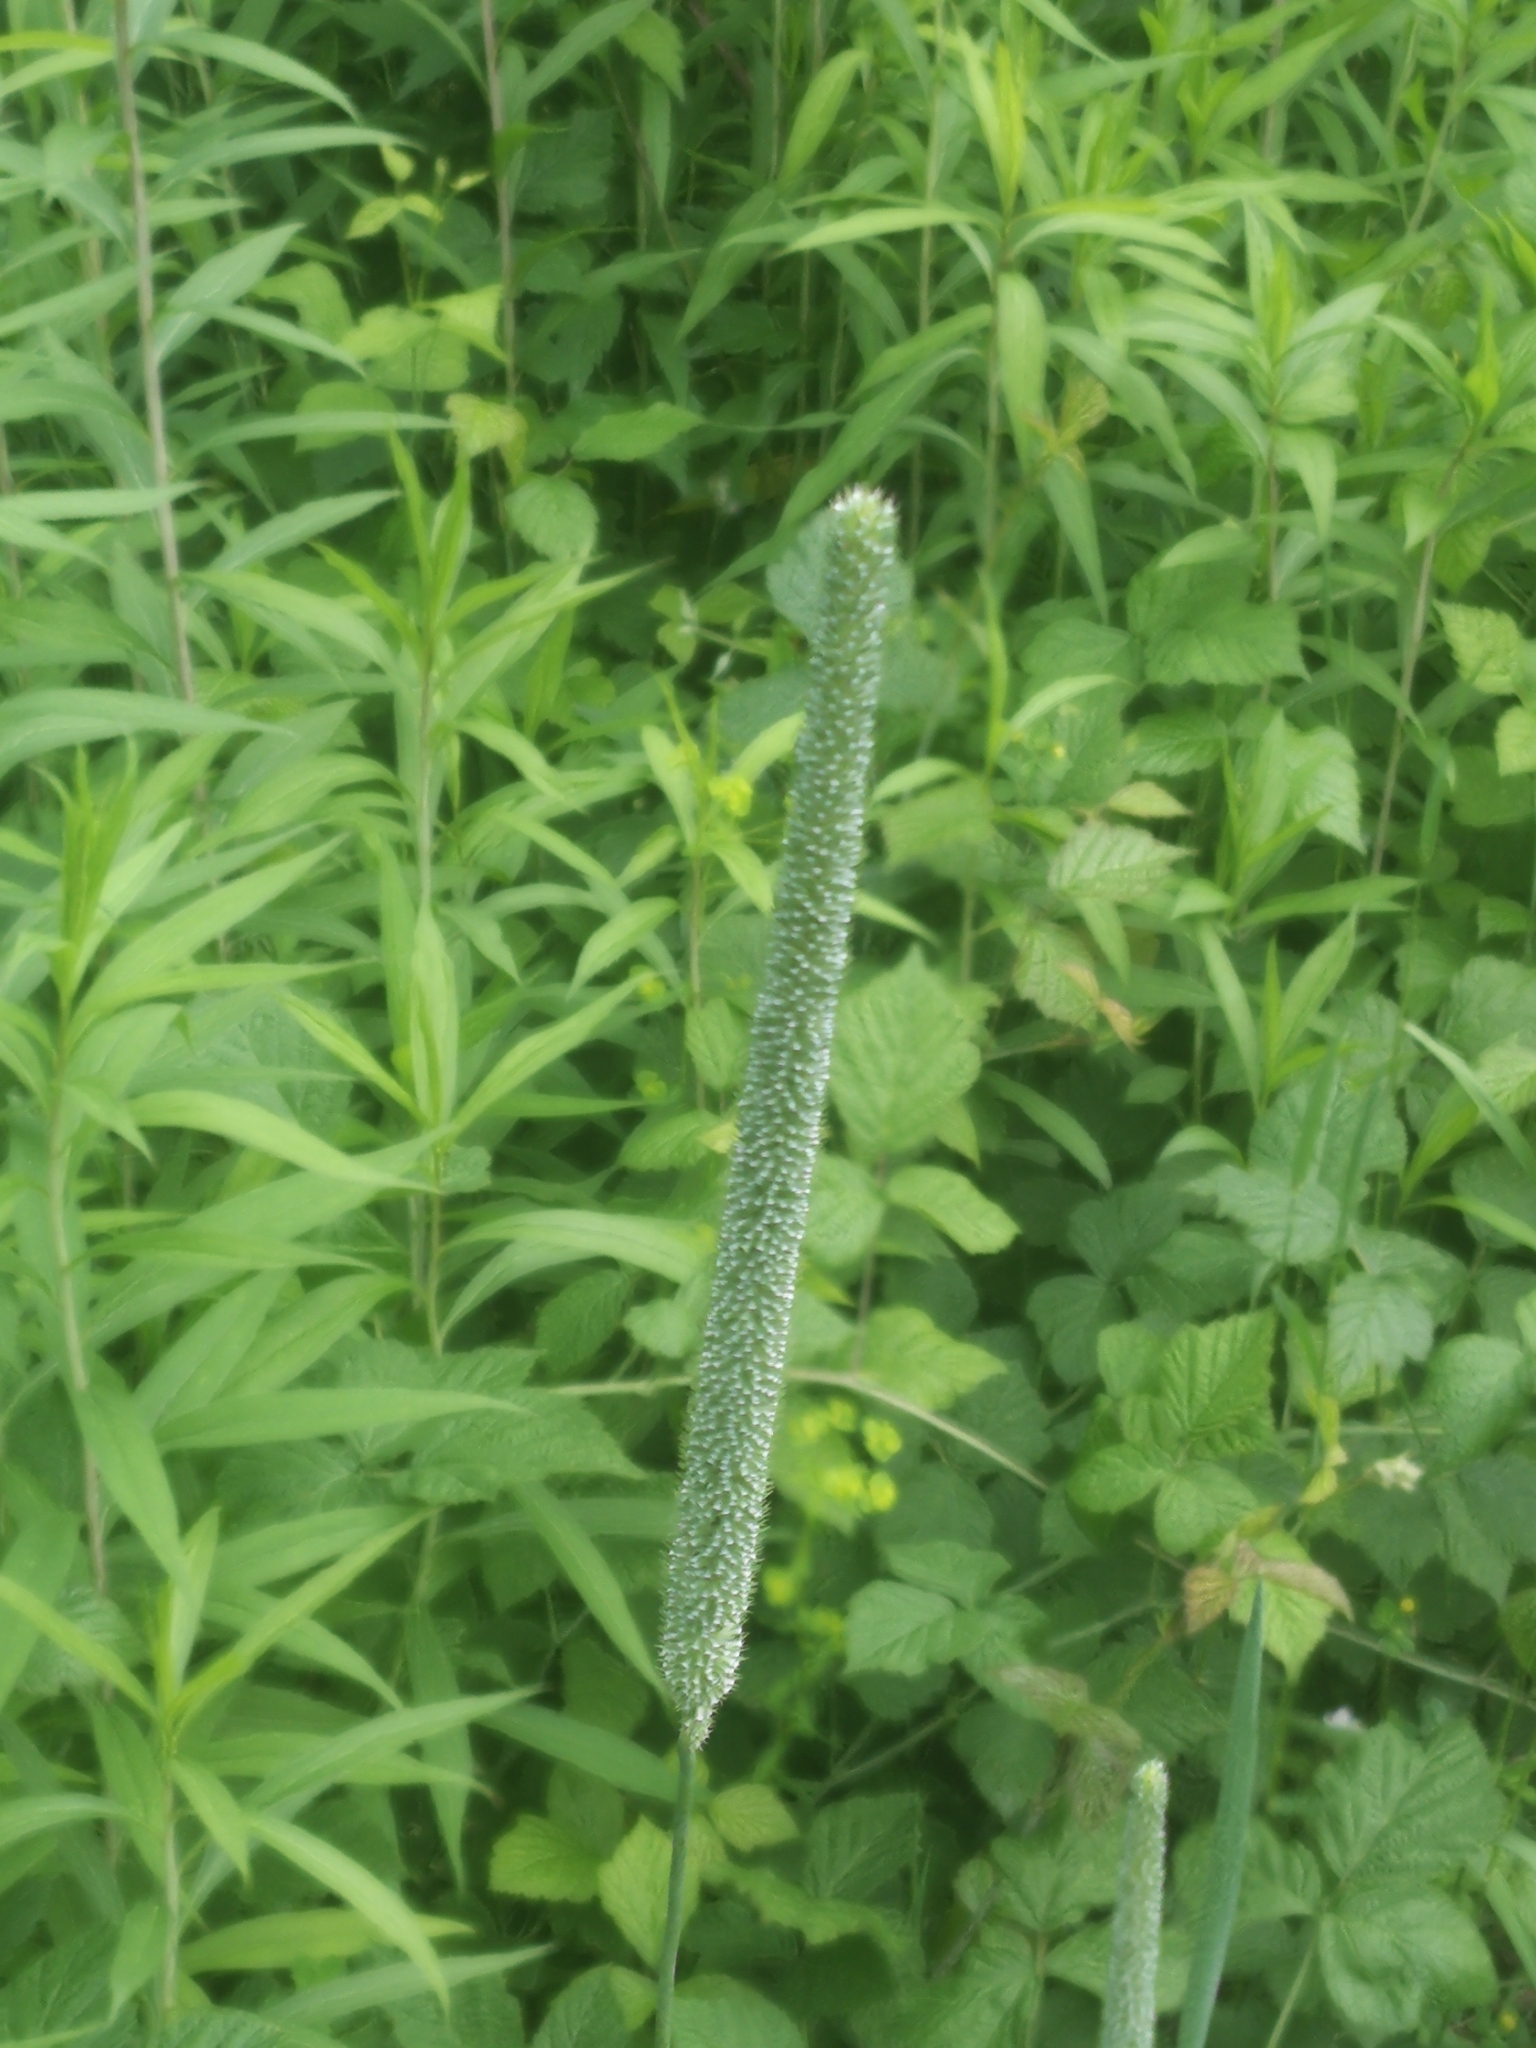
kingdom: Plantae
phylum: Tracheophyta
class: Liliopsida
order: Poales
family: Poaceae
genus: Phleum
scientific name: Phleum pratense
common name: Timothy grass
